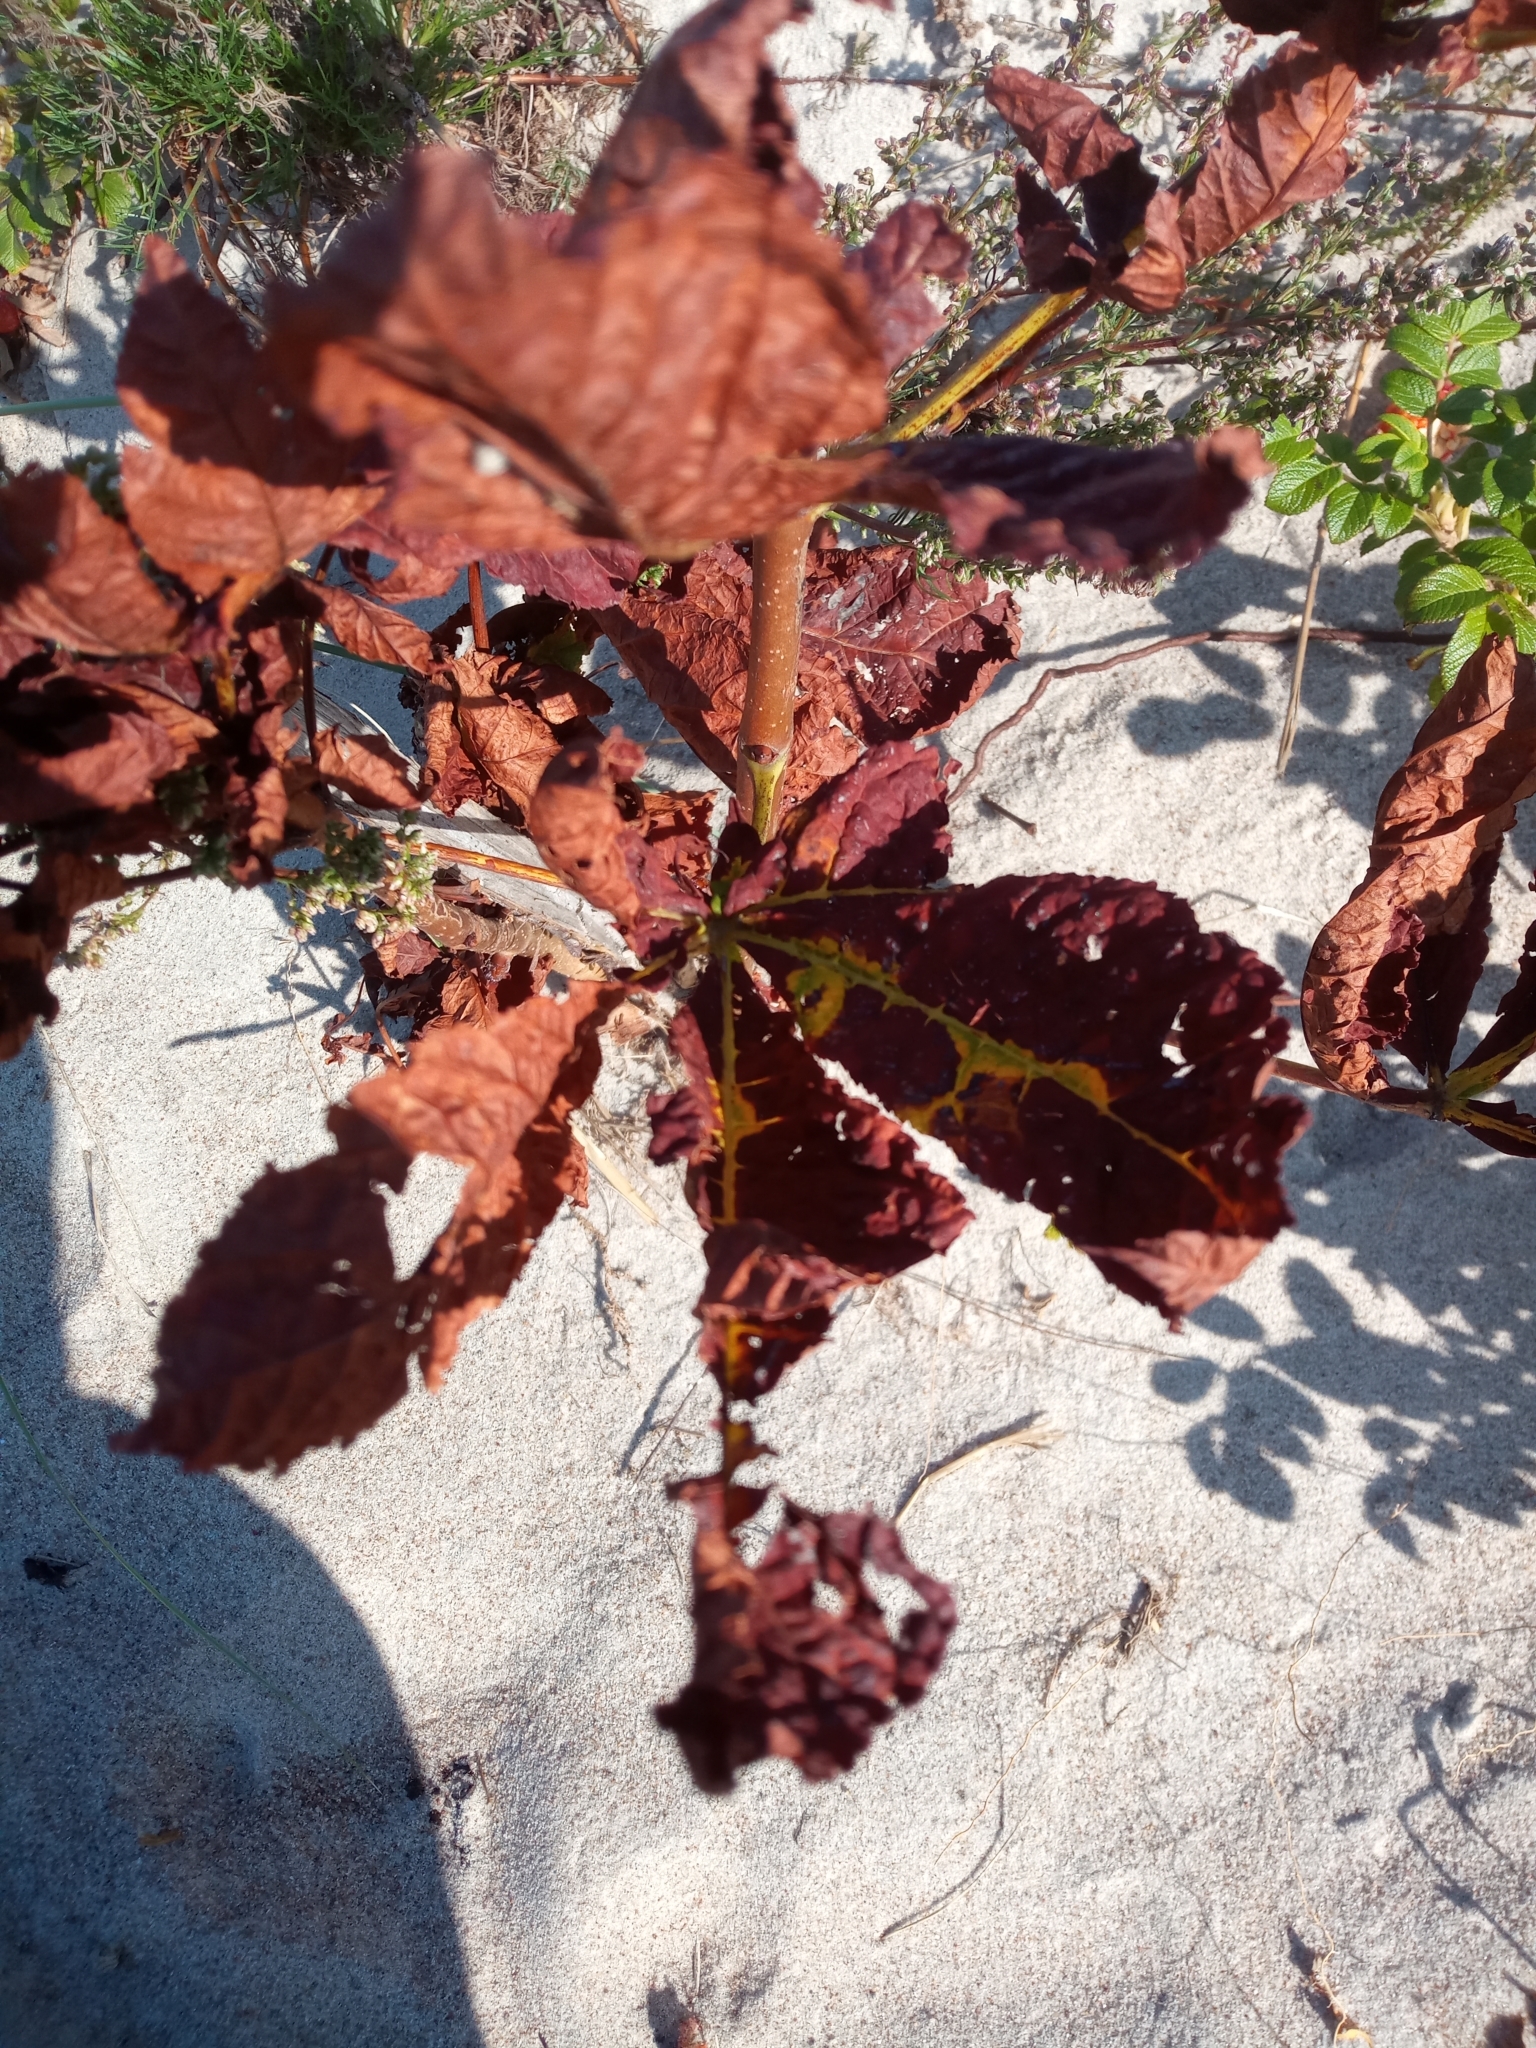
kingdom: Plantae
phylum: Tracheophyta
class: Magnoliopsida
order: Sapindales
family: Sapindaceae
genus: Aesculus
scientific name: Aesculus hippocastanum
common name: Horse-chestnut
